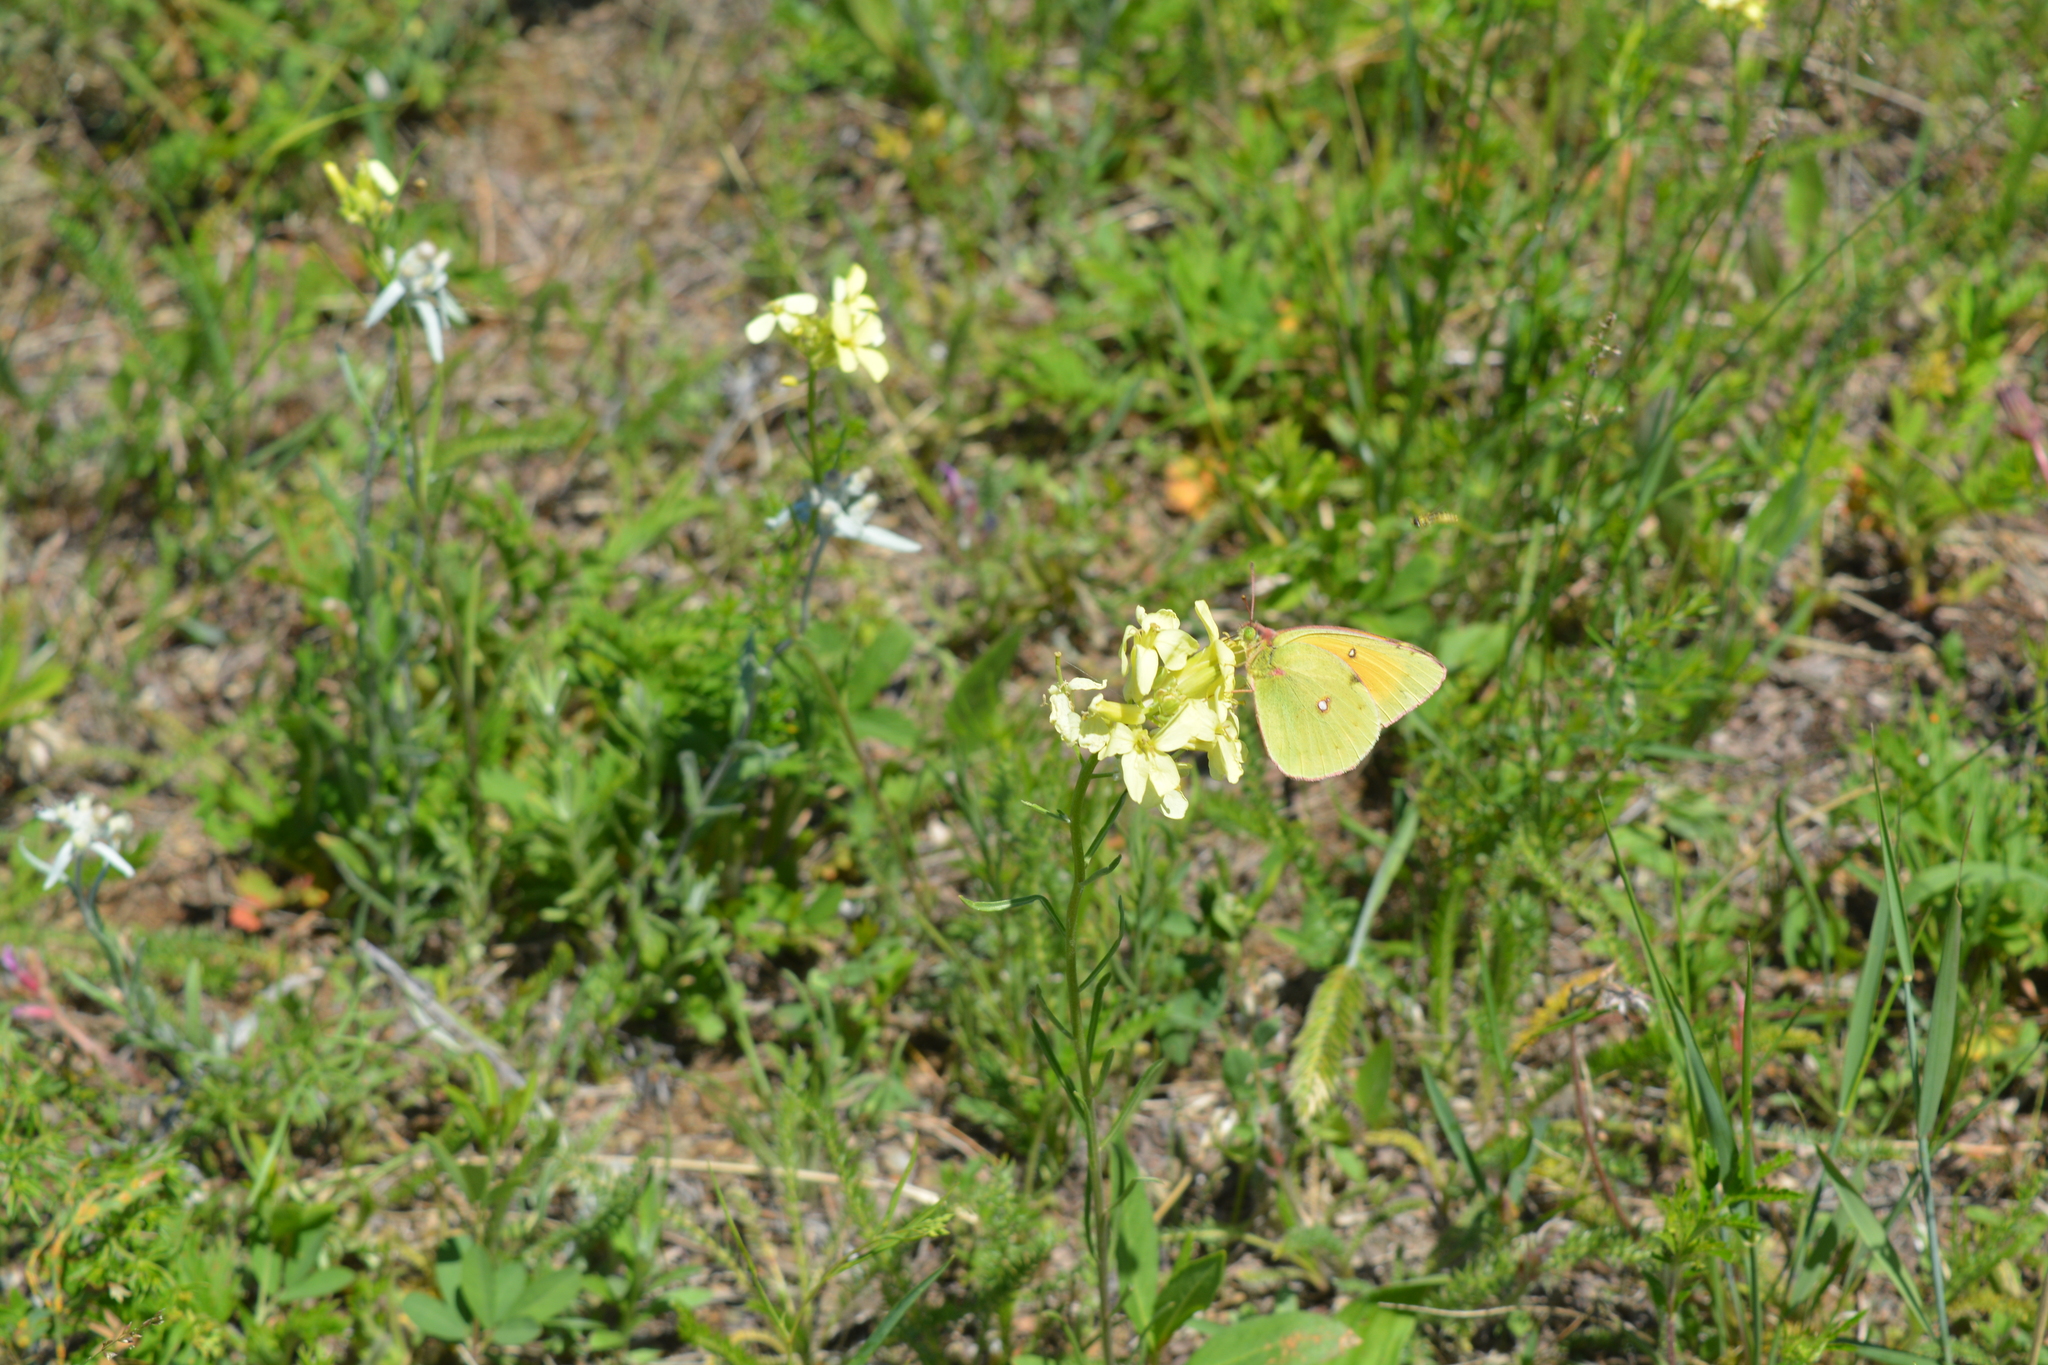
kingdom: Animalia
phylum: Arthropoda
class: Insecta
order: Lepidoptera
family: Pieridae
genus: Colias
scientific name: Colias heos
